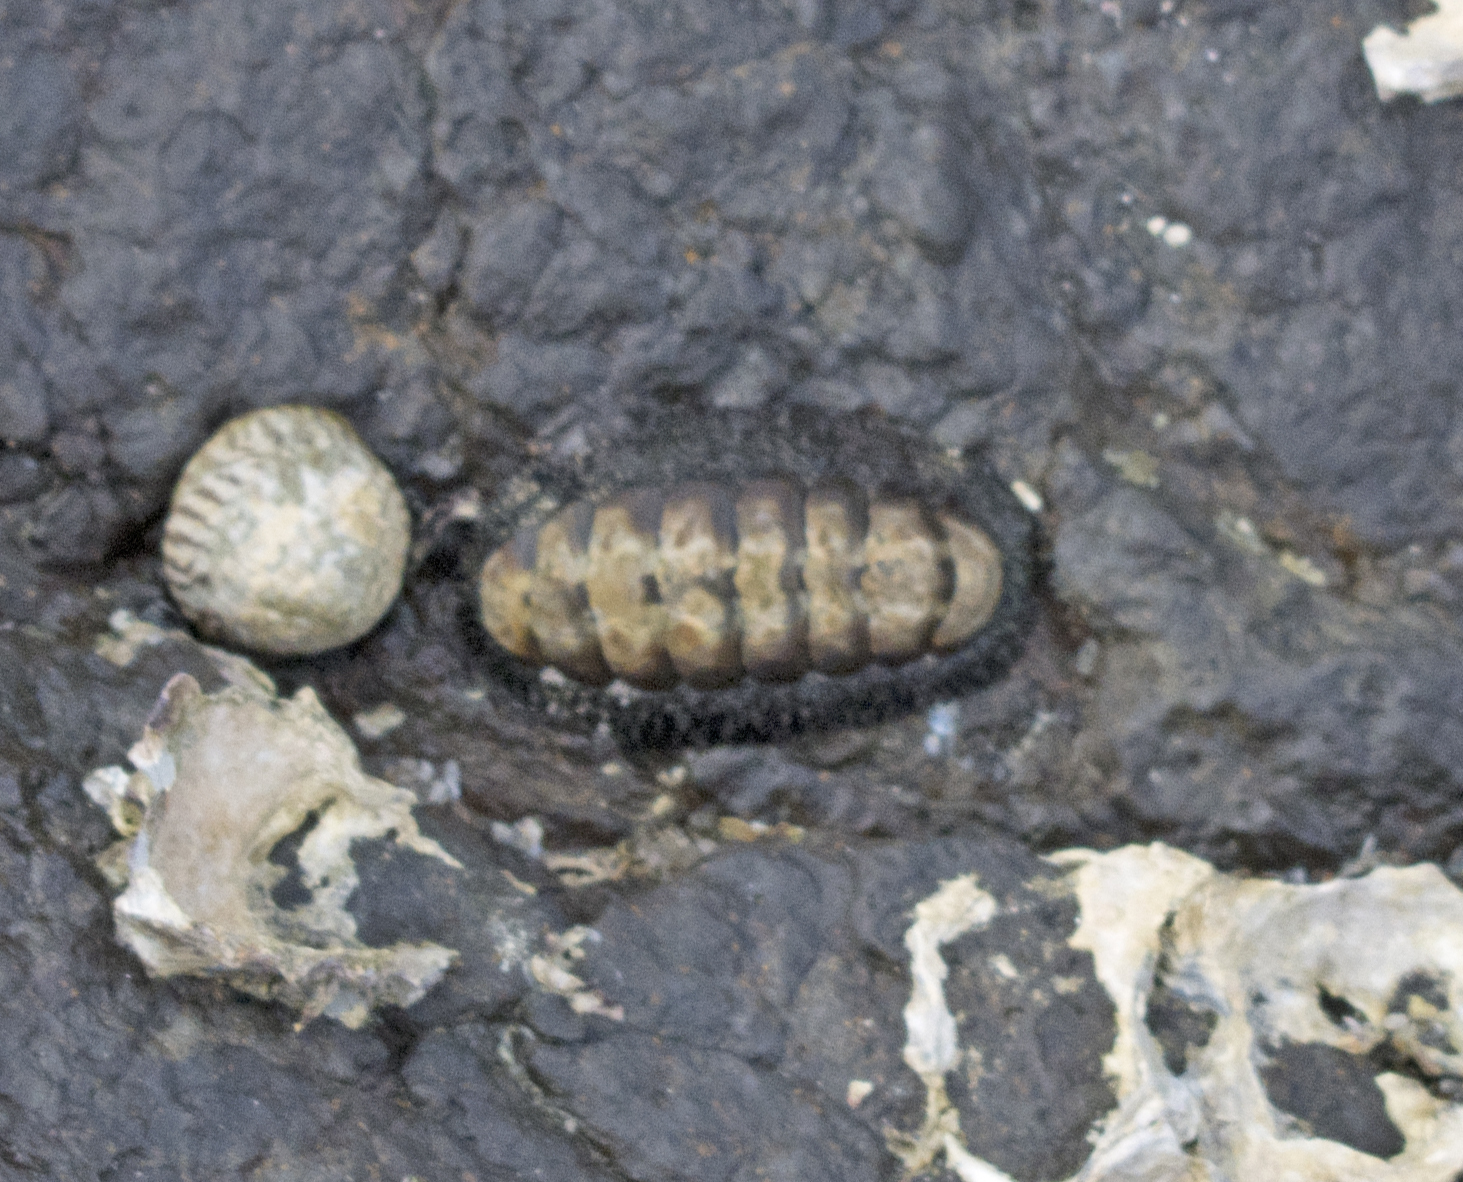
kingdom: Animalia
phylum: Mollusca
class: Polyplacophora
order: Chitonida
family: Chitonidae
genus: Acanthopleura
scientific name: Acanthopleura gemmata
